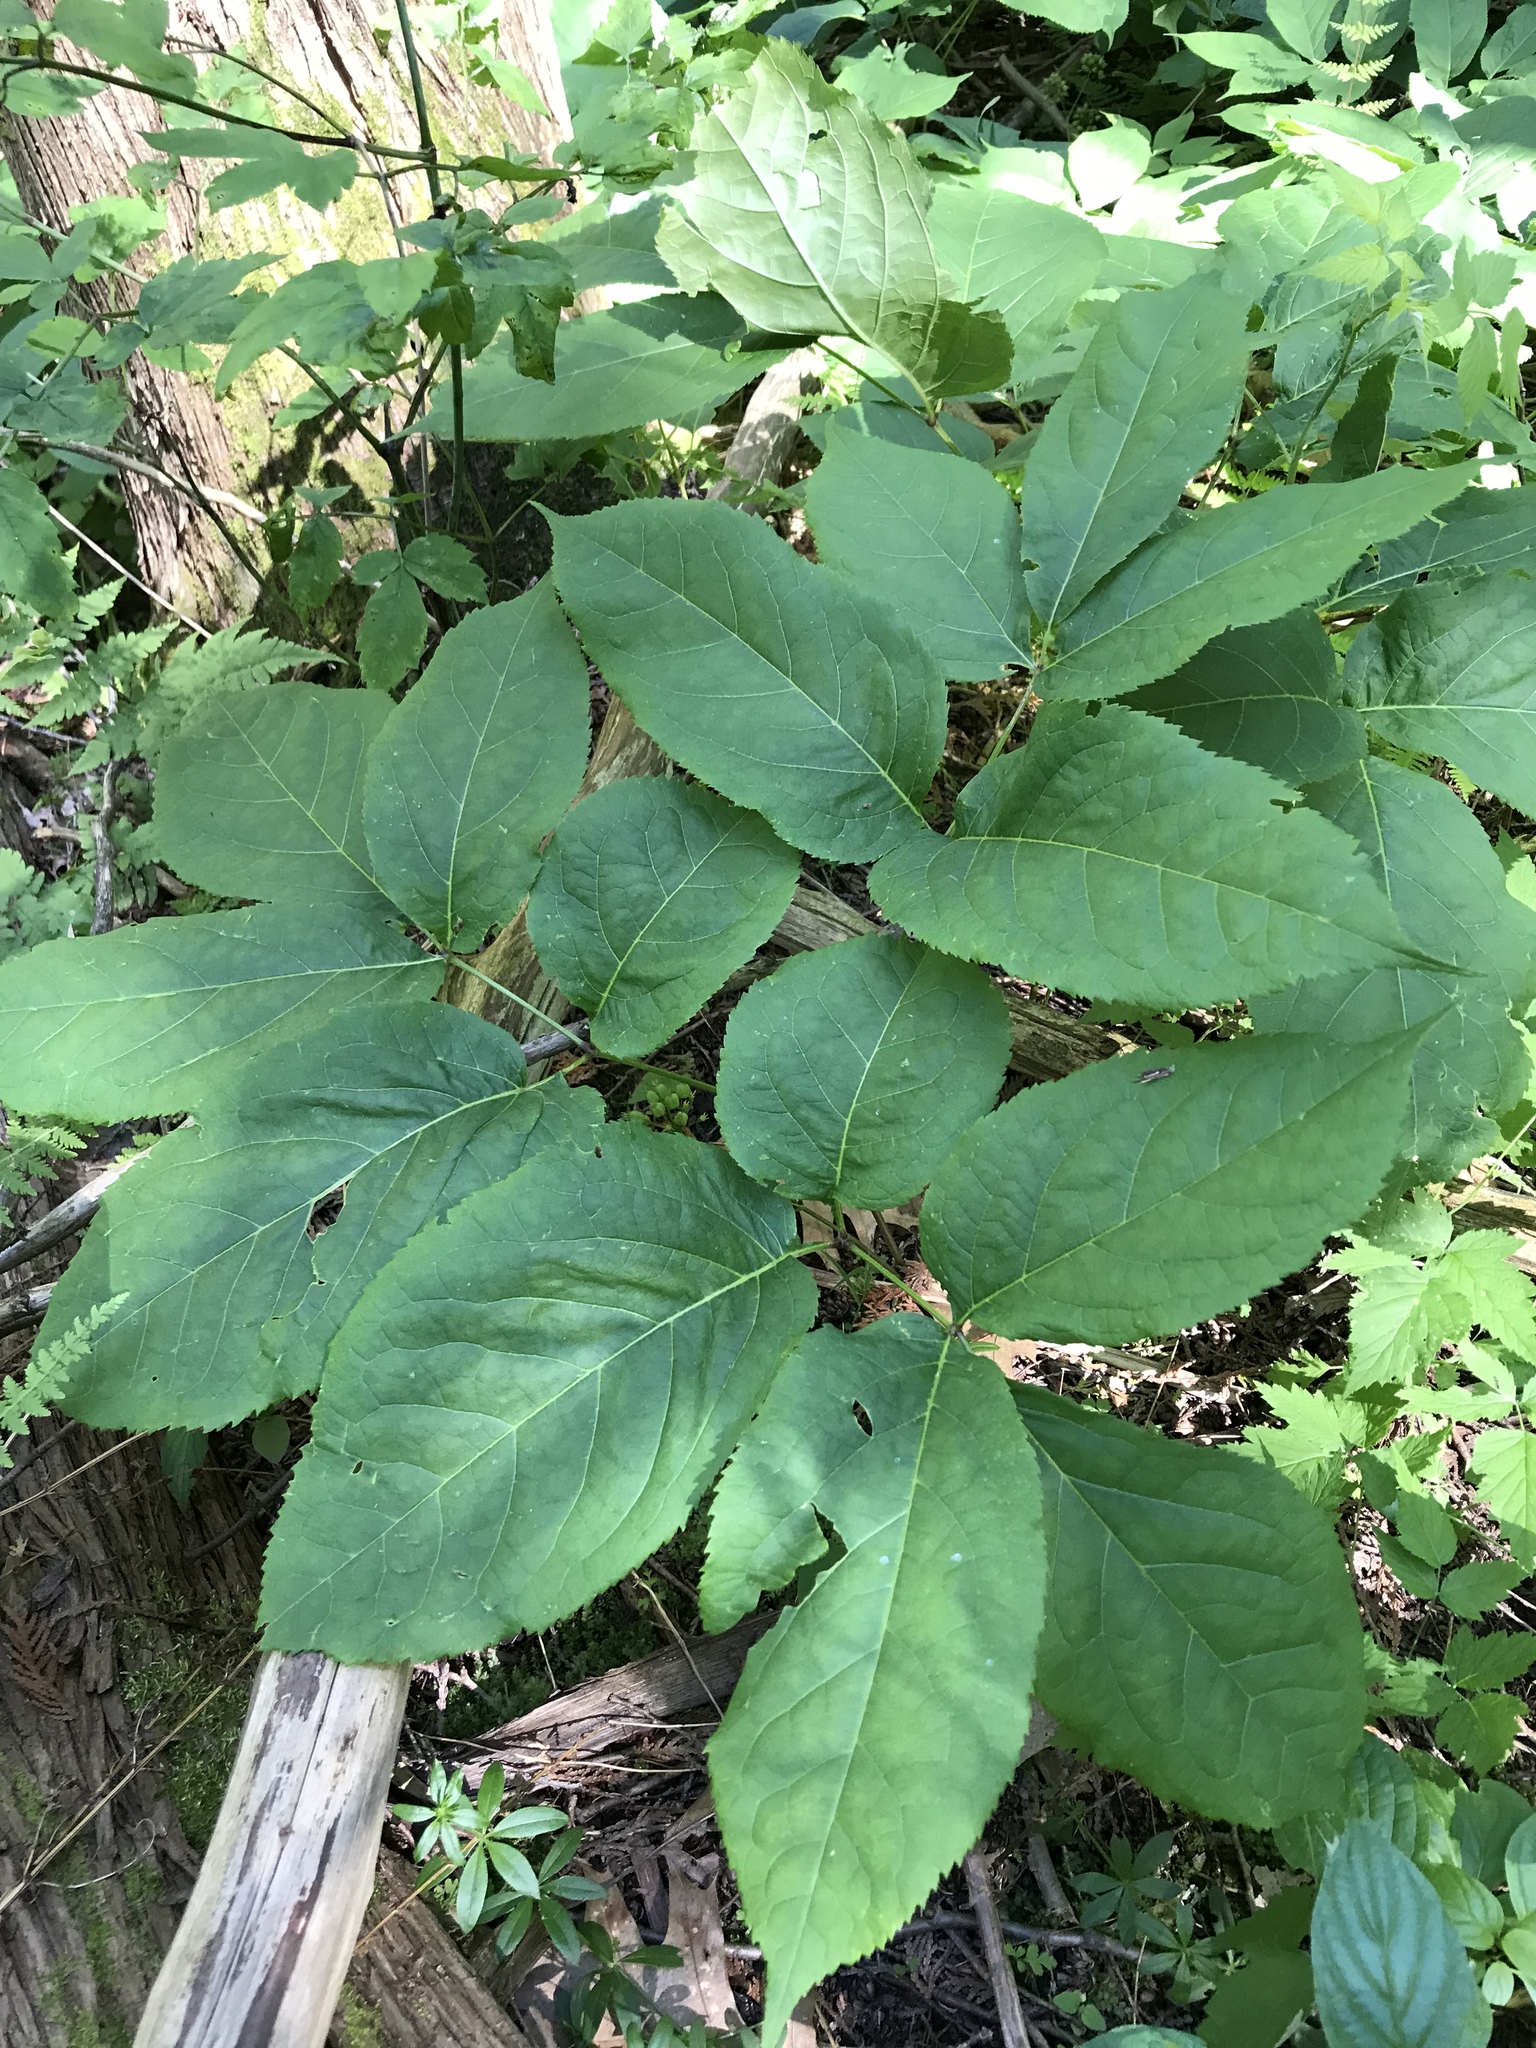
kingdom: Plantae
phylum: Tracheophyta
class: Magnoliopsida
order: Apiales
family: Araliaceae
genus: Aralia
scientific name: Aralia nudicaulis
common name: Wild sarsaparilla
